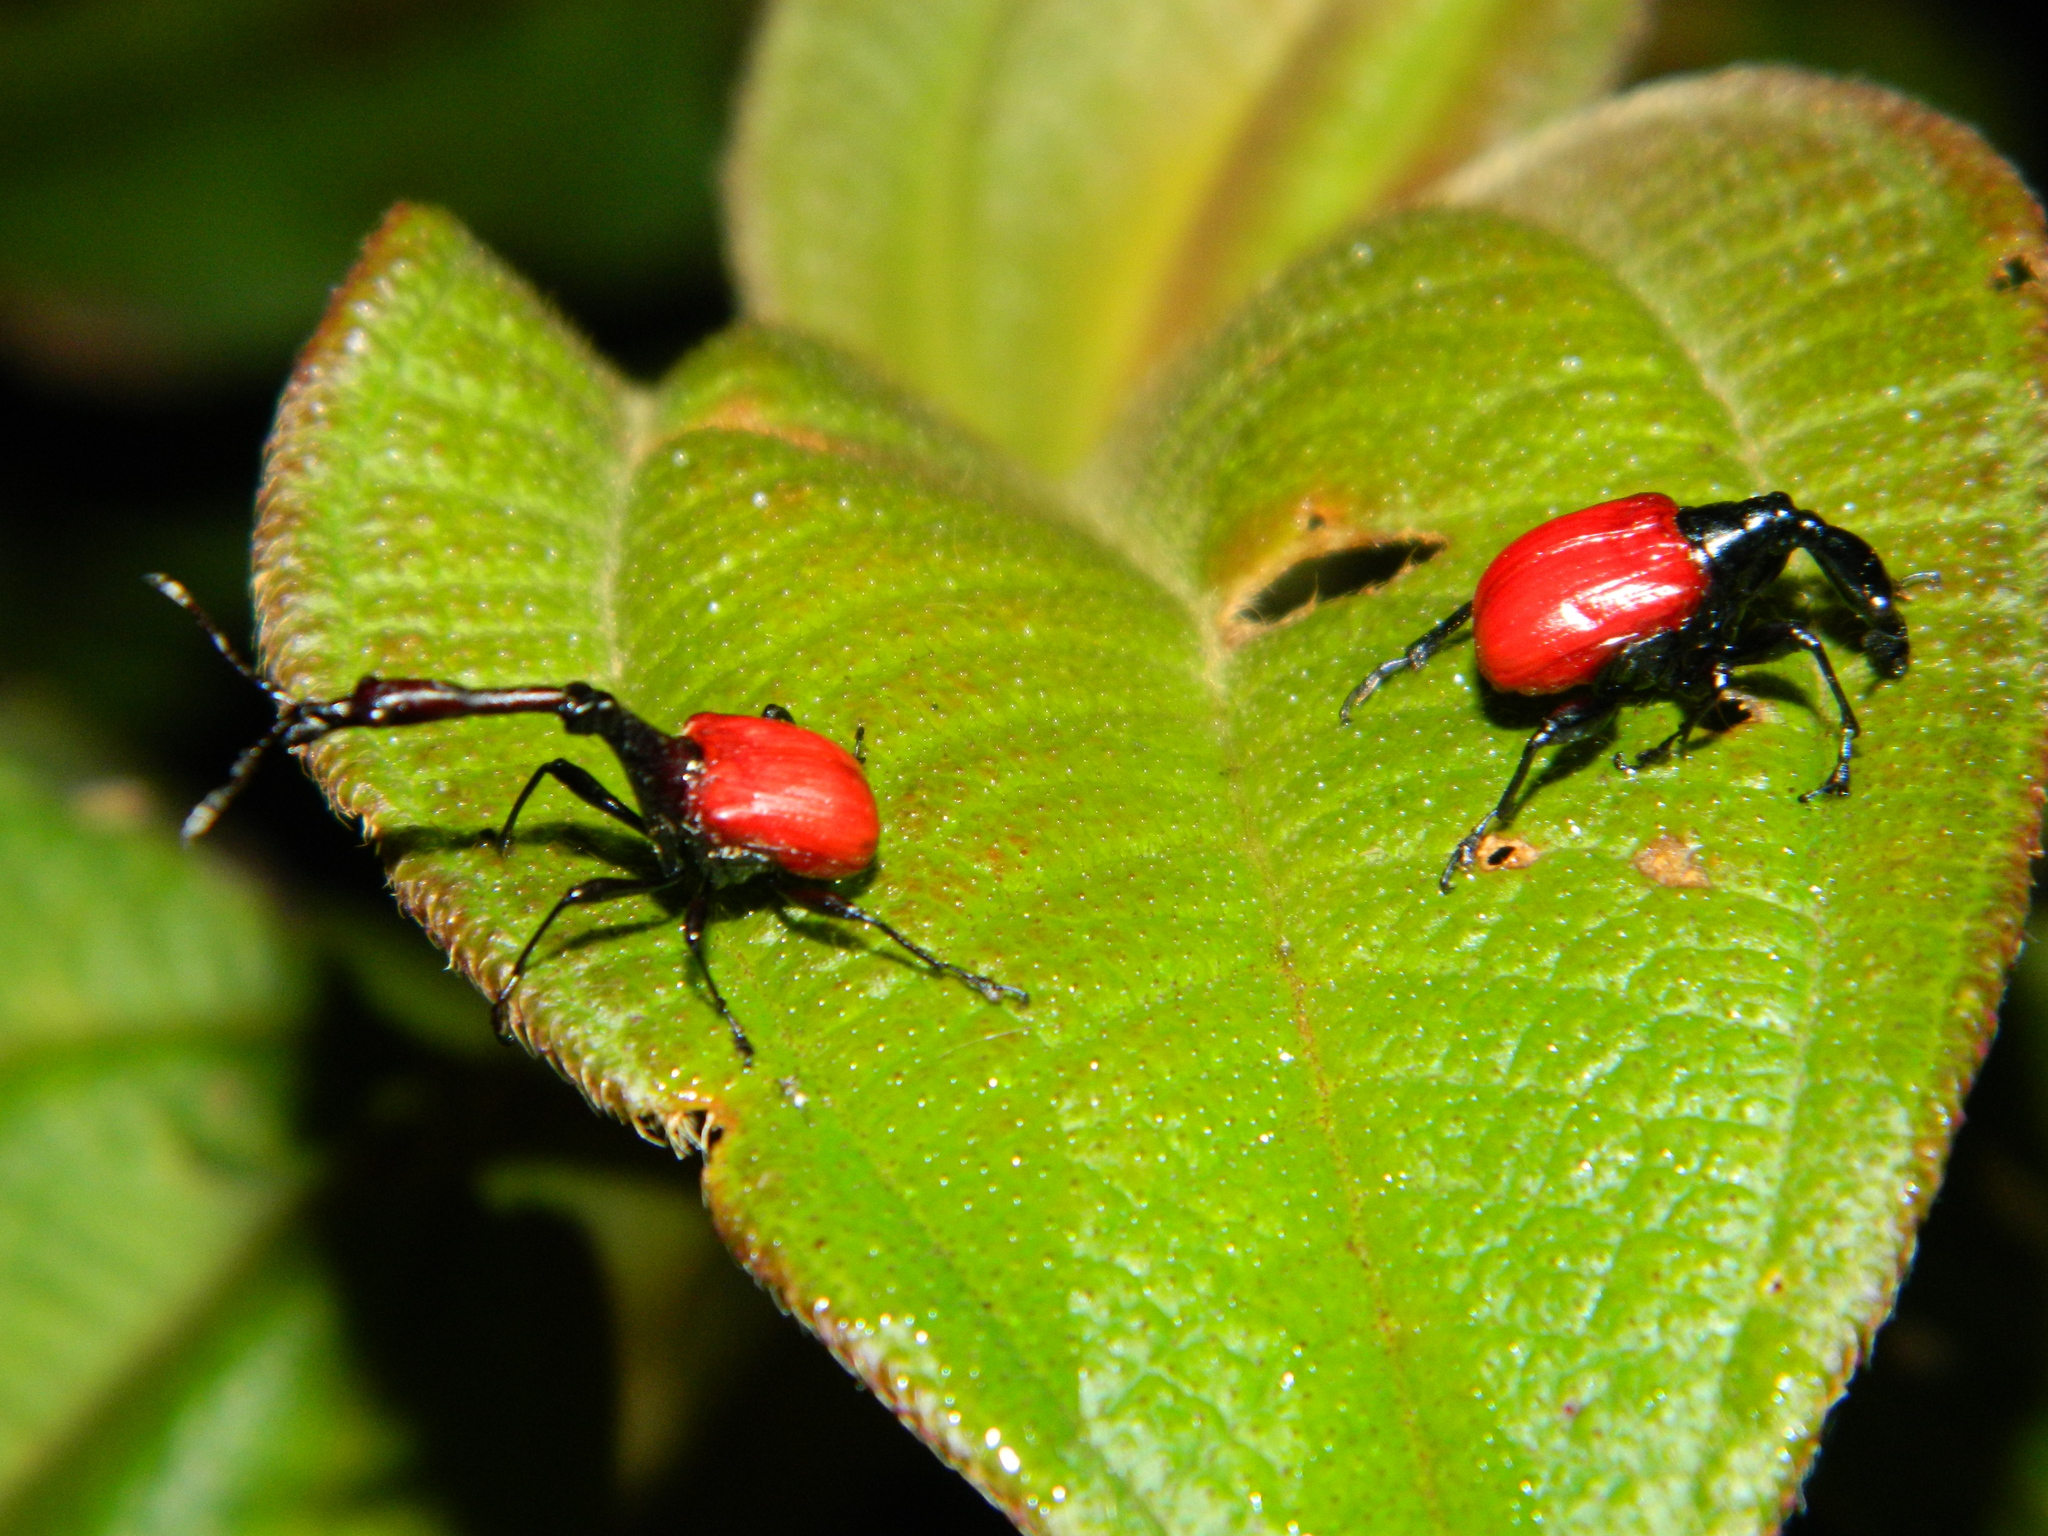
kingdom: Animalia
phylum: Arthropoda
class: Insecta
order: Coleoptera
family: Attelabidae
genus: Trachelophorus
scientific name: Trachelophorus giraffa
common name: Giraffe weevil
